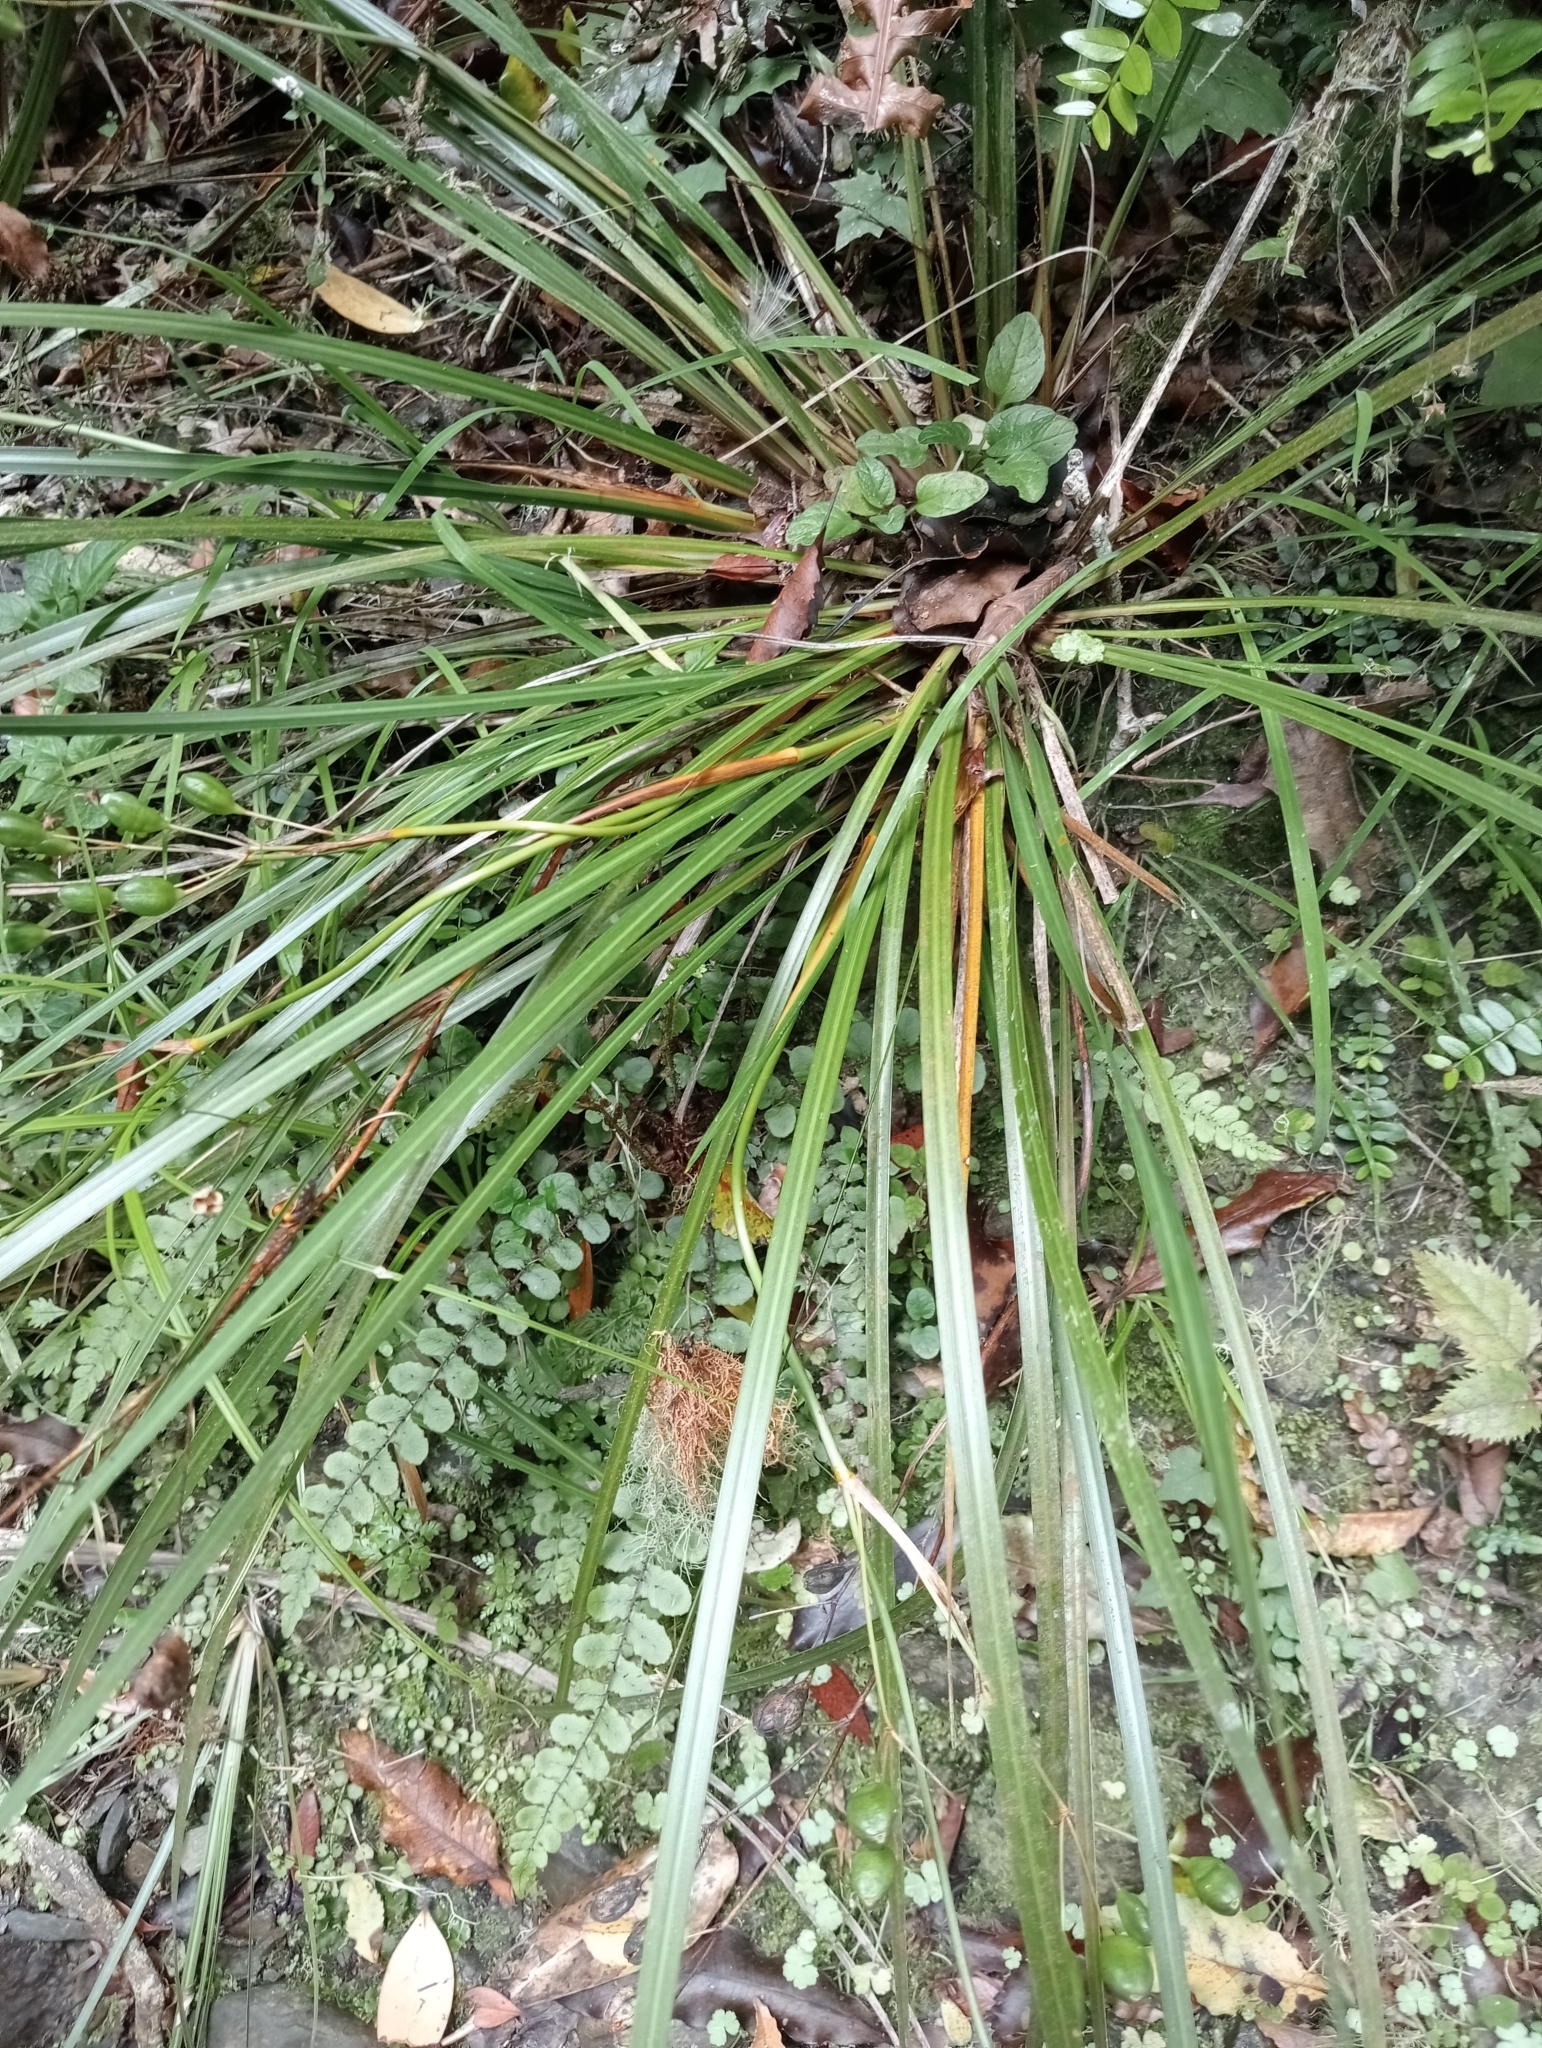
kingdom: Plantae
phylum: Tracheophyta
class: Liliopsida
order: Asparagales
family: Iridaceae
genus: Libertia
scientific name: Libertia ixioides
